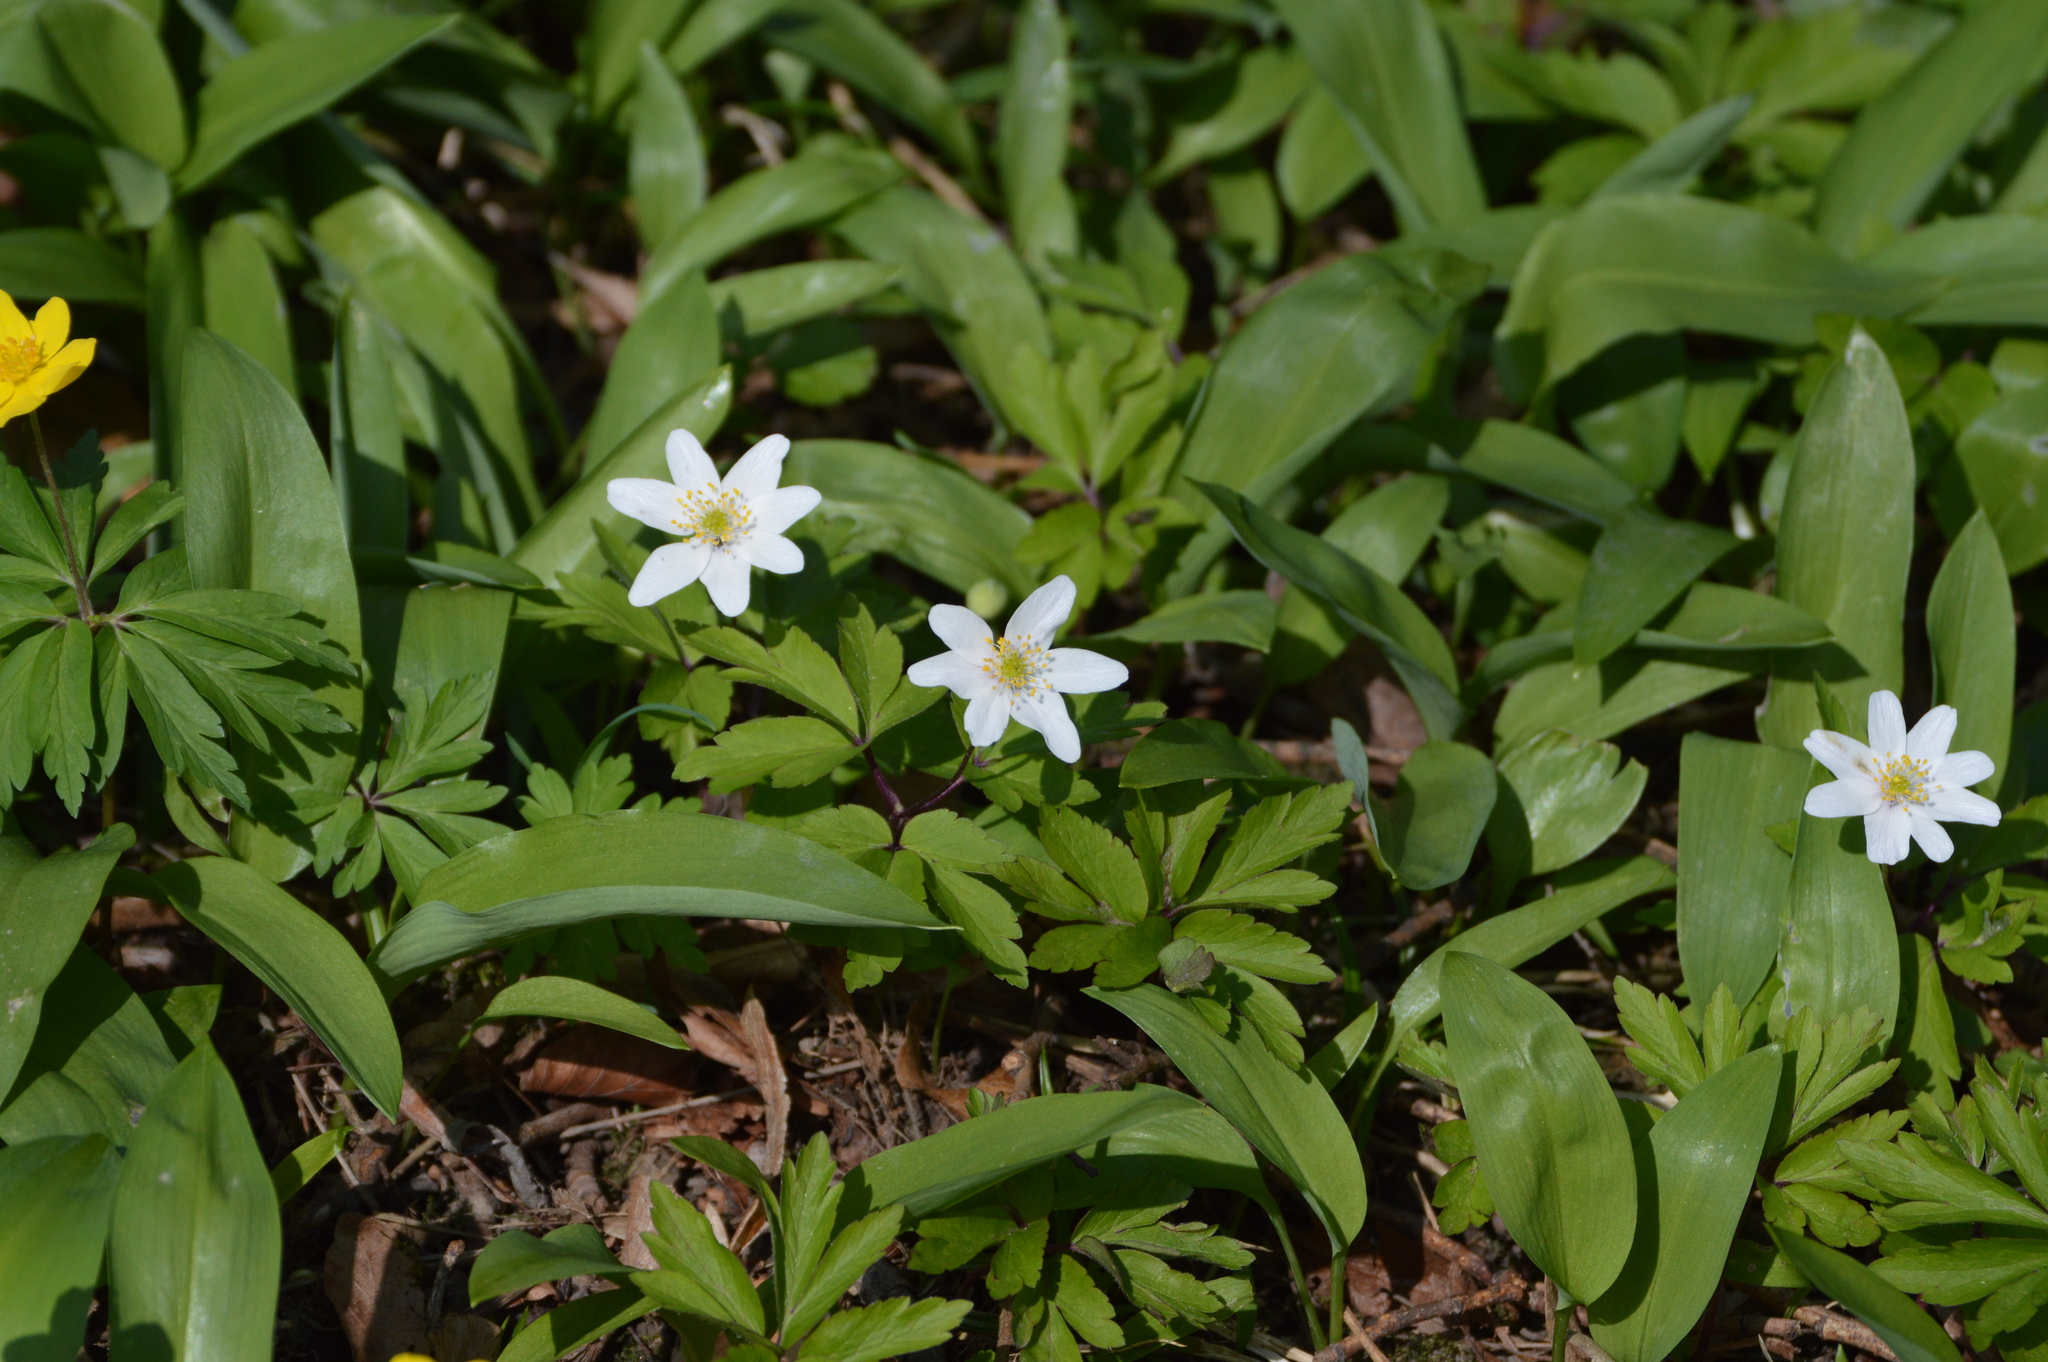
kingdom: Plantae
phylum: Tracheophyta
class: Magnoliopsida
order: Ranunculales
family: Ranunculaceae
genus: Anemone
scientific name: Anemone nemorosa
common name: Wood anemone
